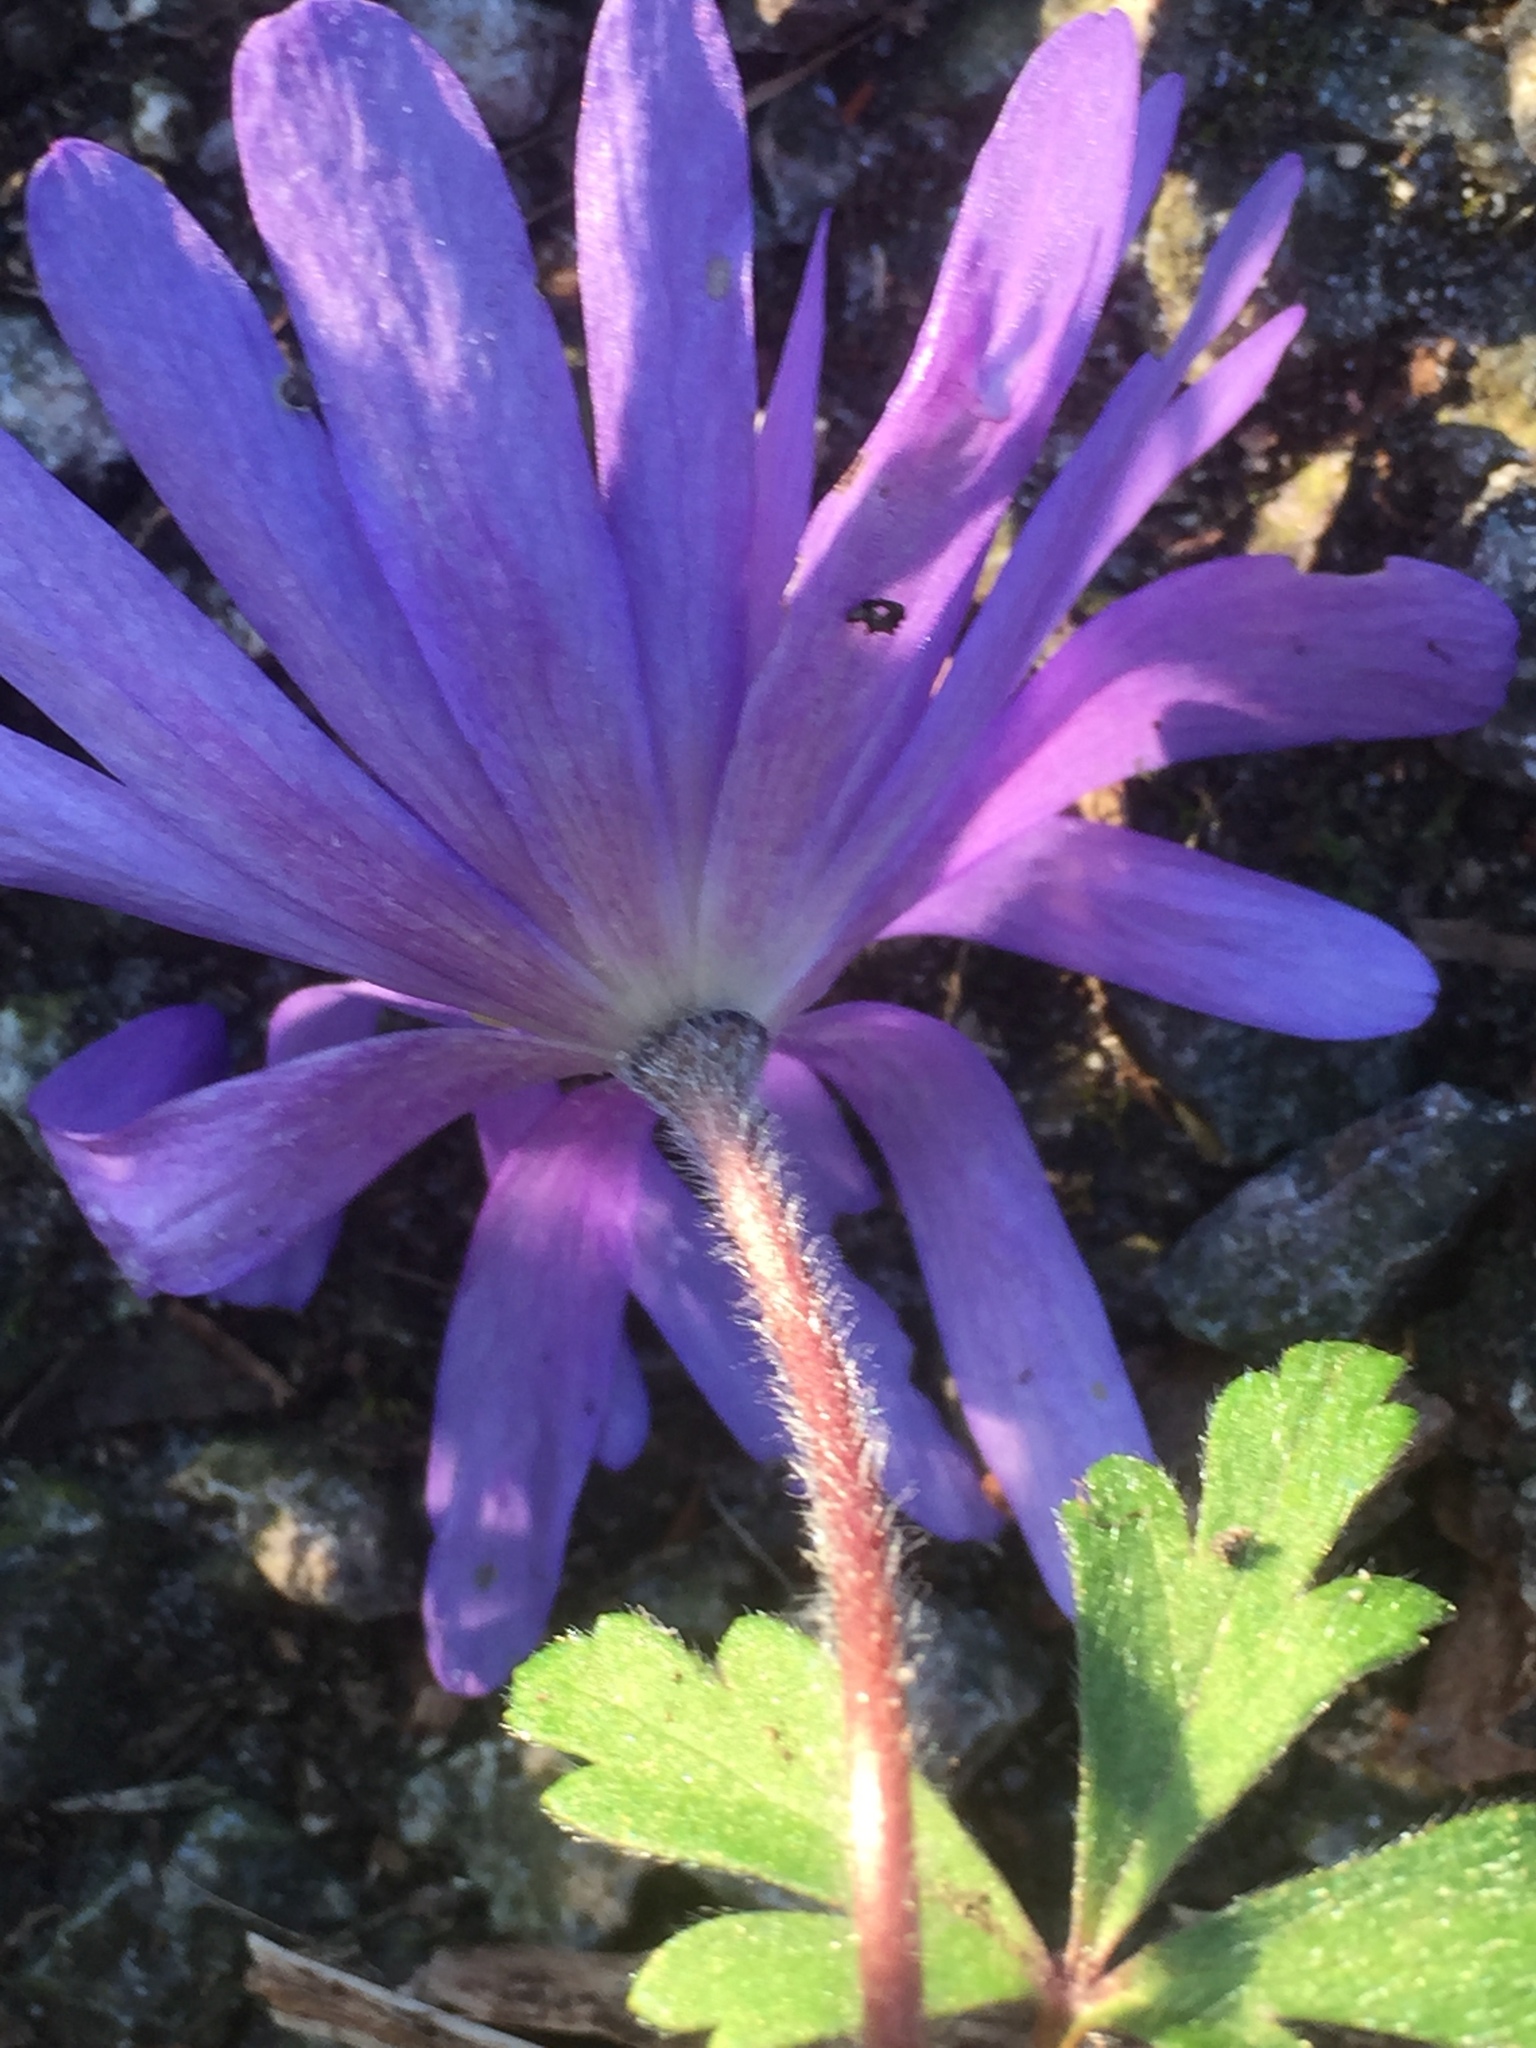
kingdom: Plantae
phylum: Tracheophyta
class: Magnoliopsida
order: Ranunculales
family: Ranunculaceae
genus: Anemone
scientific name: Anemone blanda
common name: Balkan anemone
